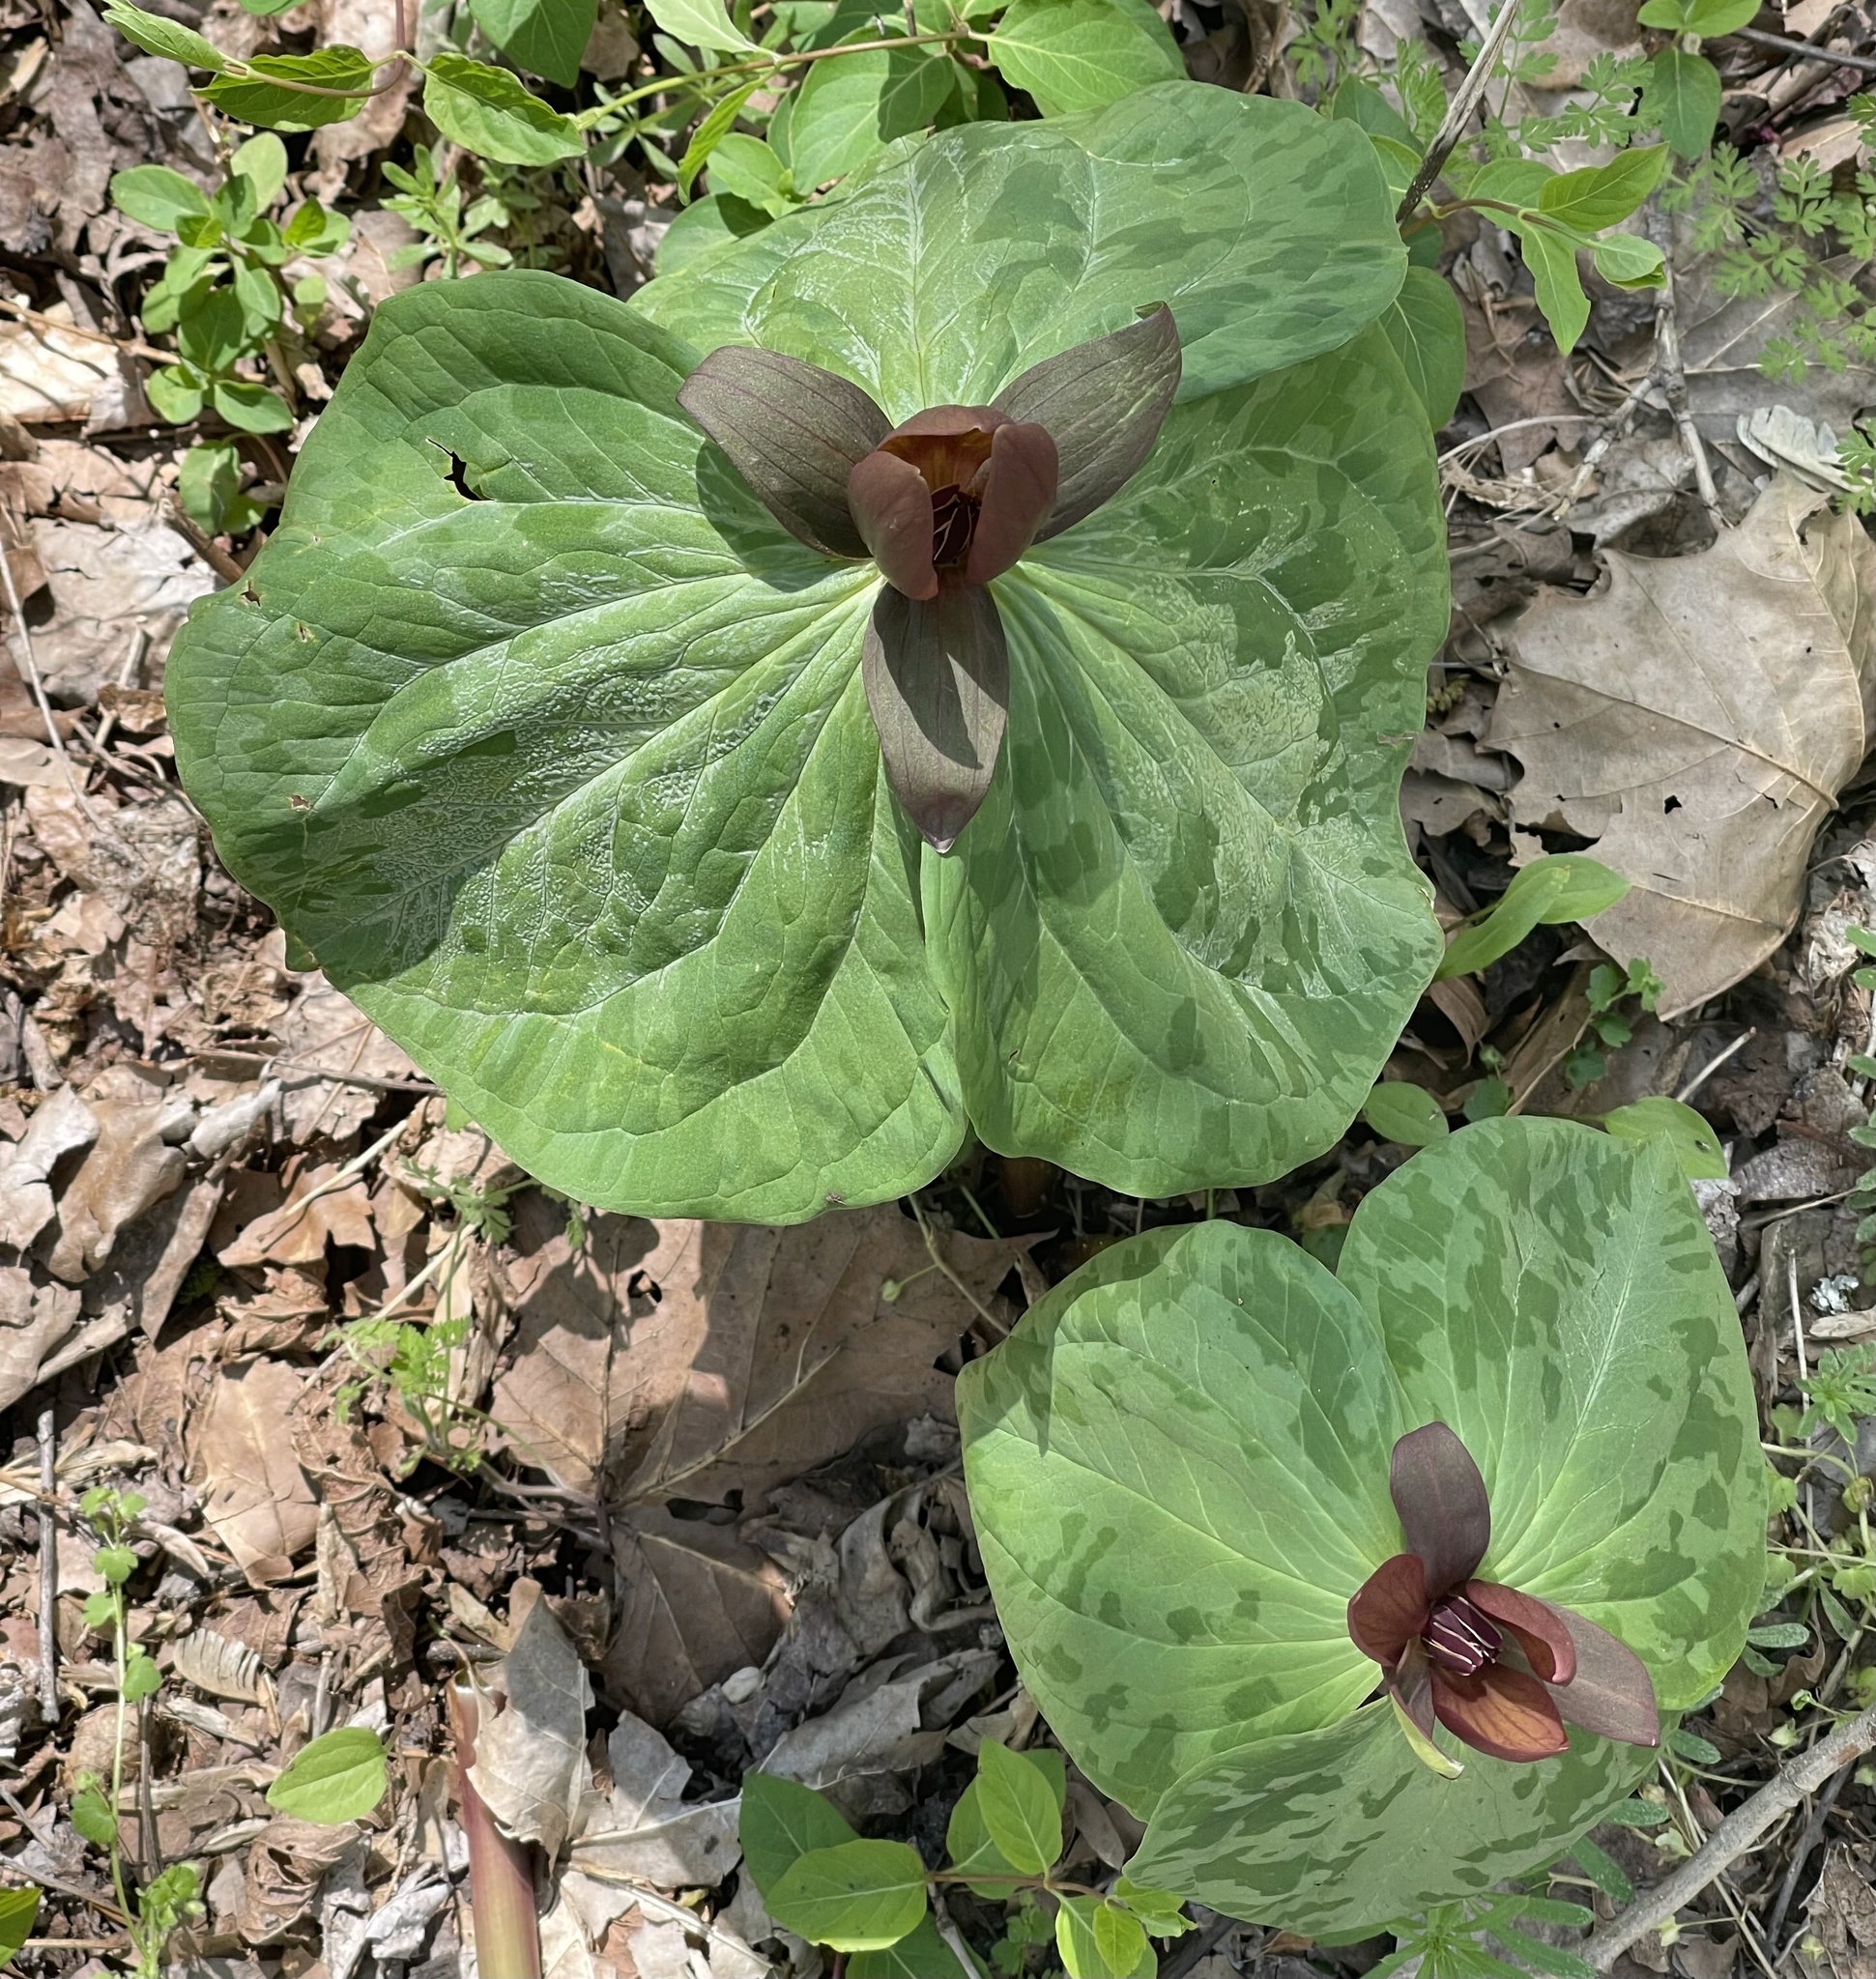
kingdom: Plantae
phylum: Tracheophyta
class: Liliopsida
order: Liliales
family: Melanthiaceae
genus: Trillium
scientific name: Trillium cuneatum
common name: Cuneate trillium
